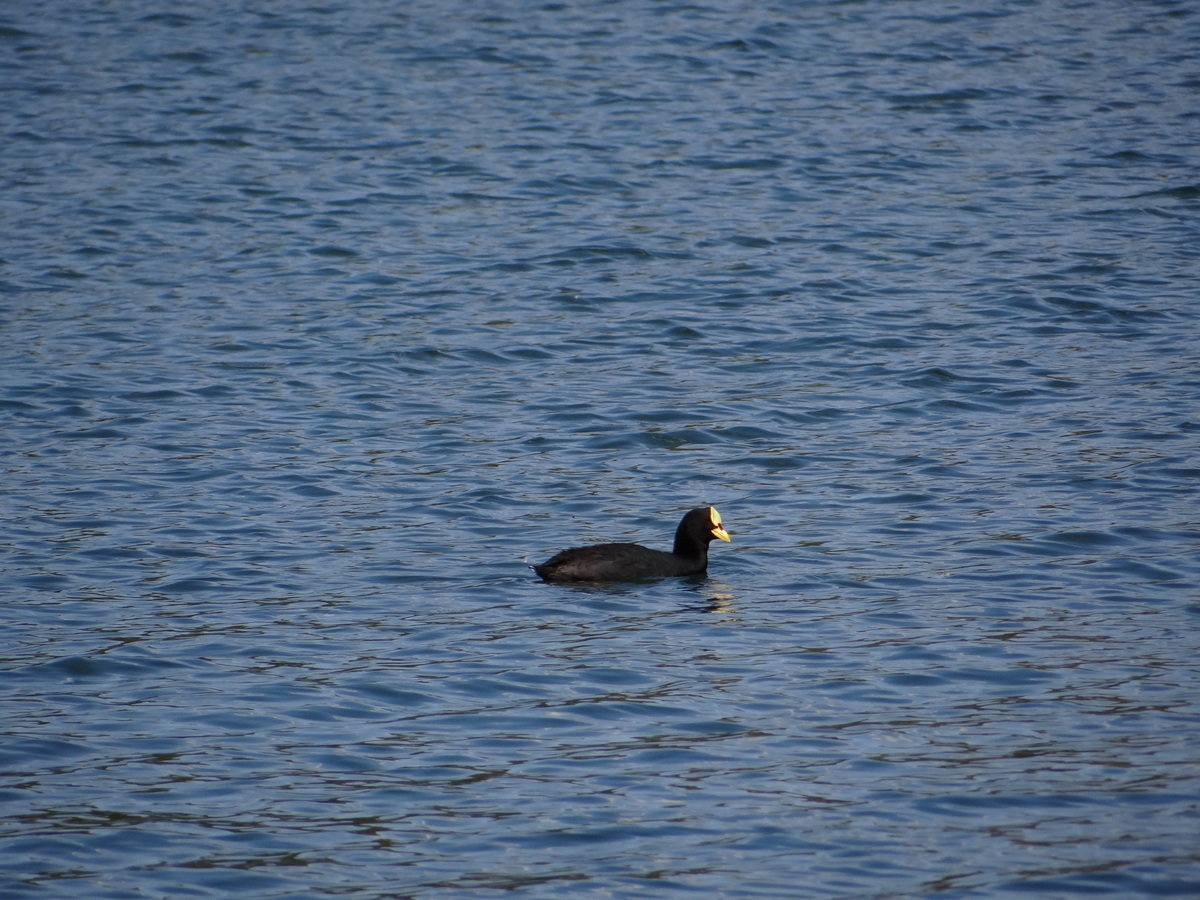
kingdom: Animalia
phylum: Chordata
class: Aves
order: Gruiformes
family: Rallidae
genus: Fulica
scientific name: Fulica armillata
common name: Red-gartered coot
